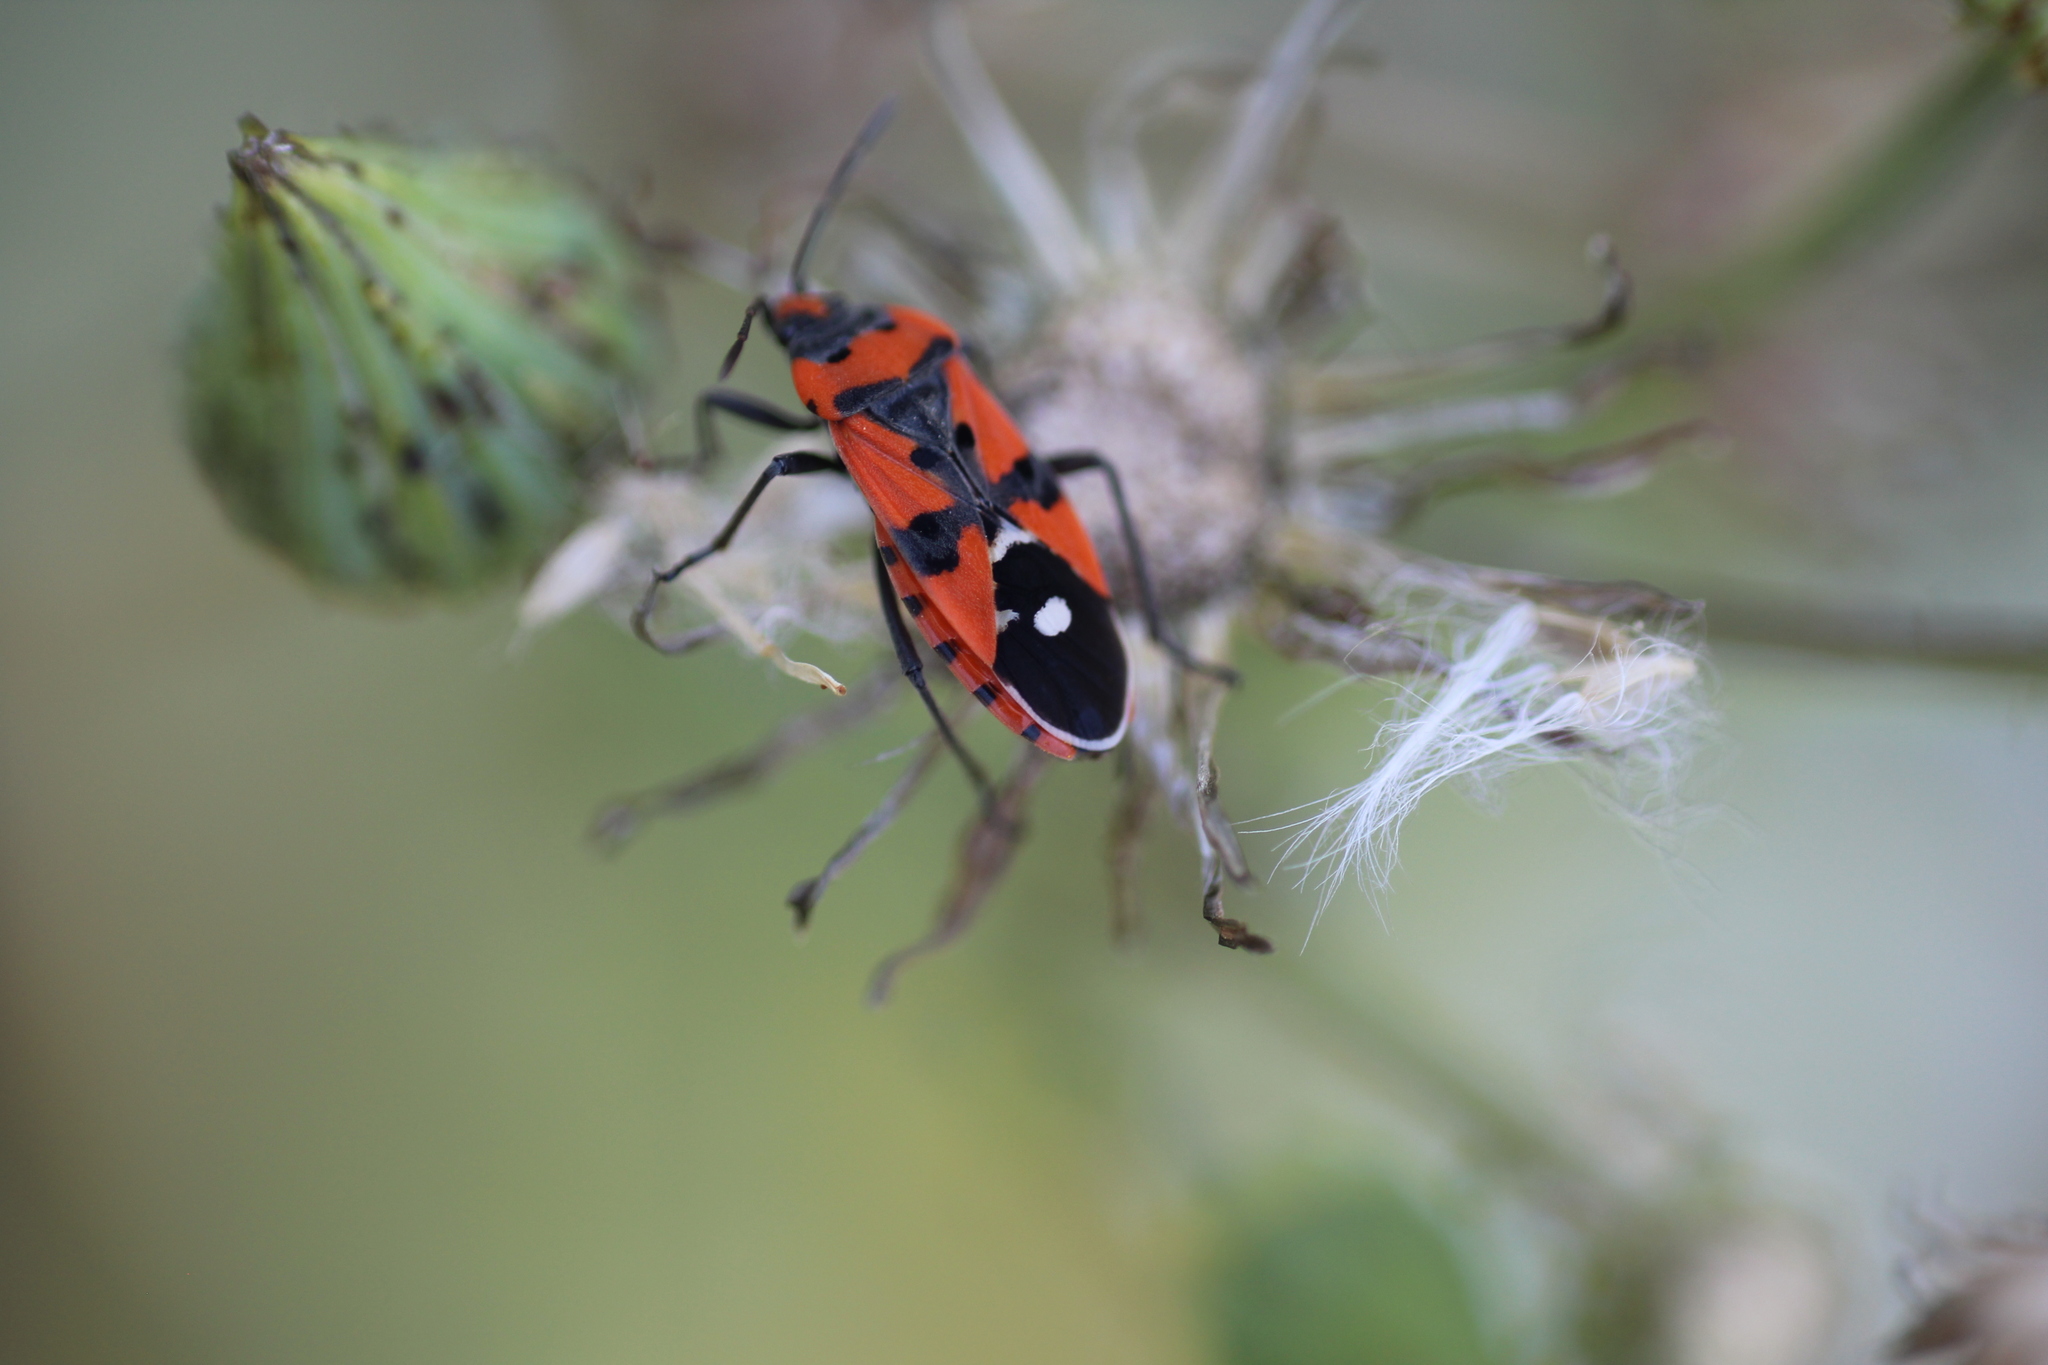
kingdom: Animalia
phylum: Arthropoda
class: Insecta
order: Hemiptera
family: Lygaeidae
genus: Lygaeus
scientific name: Lygaeus equestris
